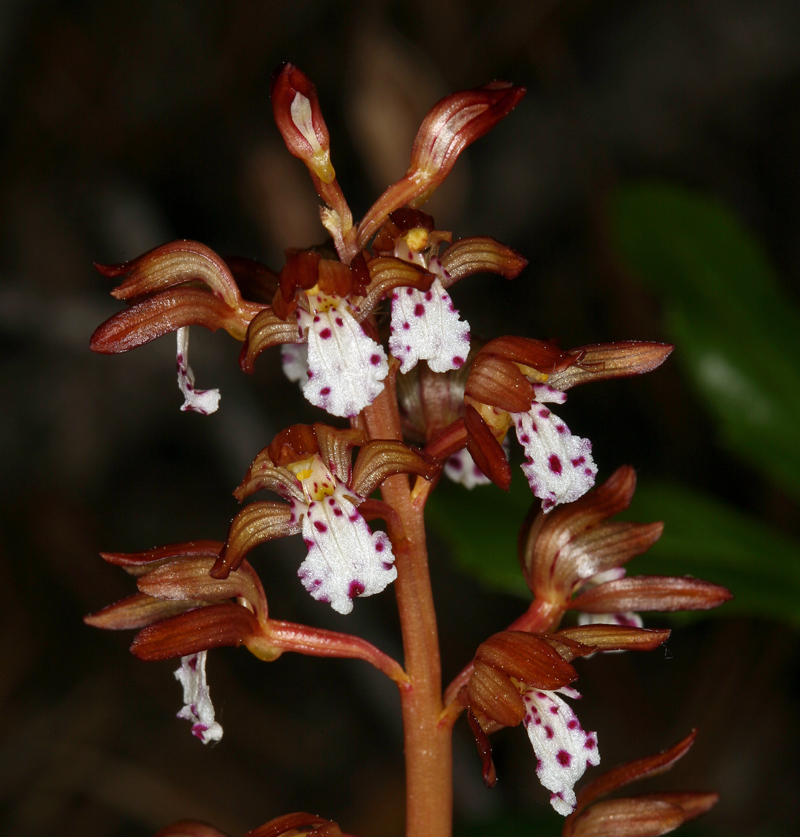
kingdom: Plantae
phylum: Tracheophyta
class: Liliopsida
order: Asparagales
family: Orchidaceae
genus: Corallorhiza
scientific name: Corallorhiza maculata
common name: Spotted coralroot
